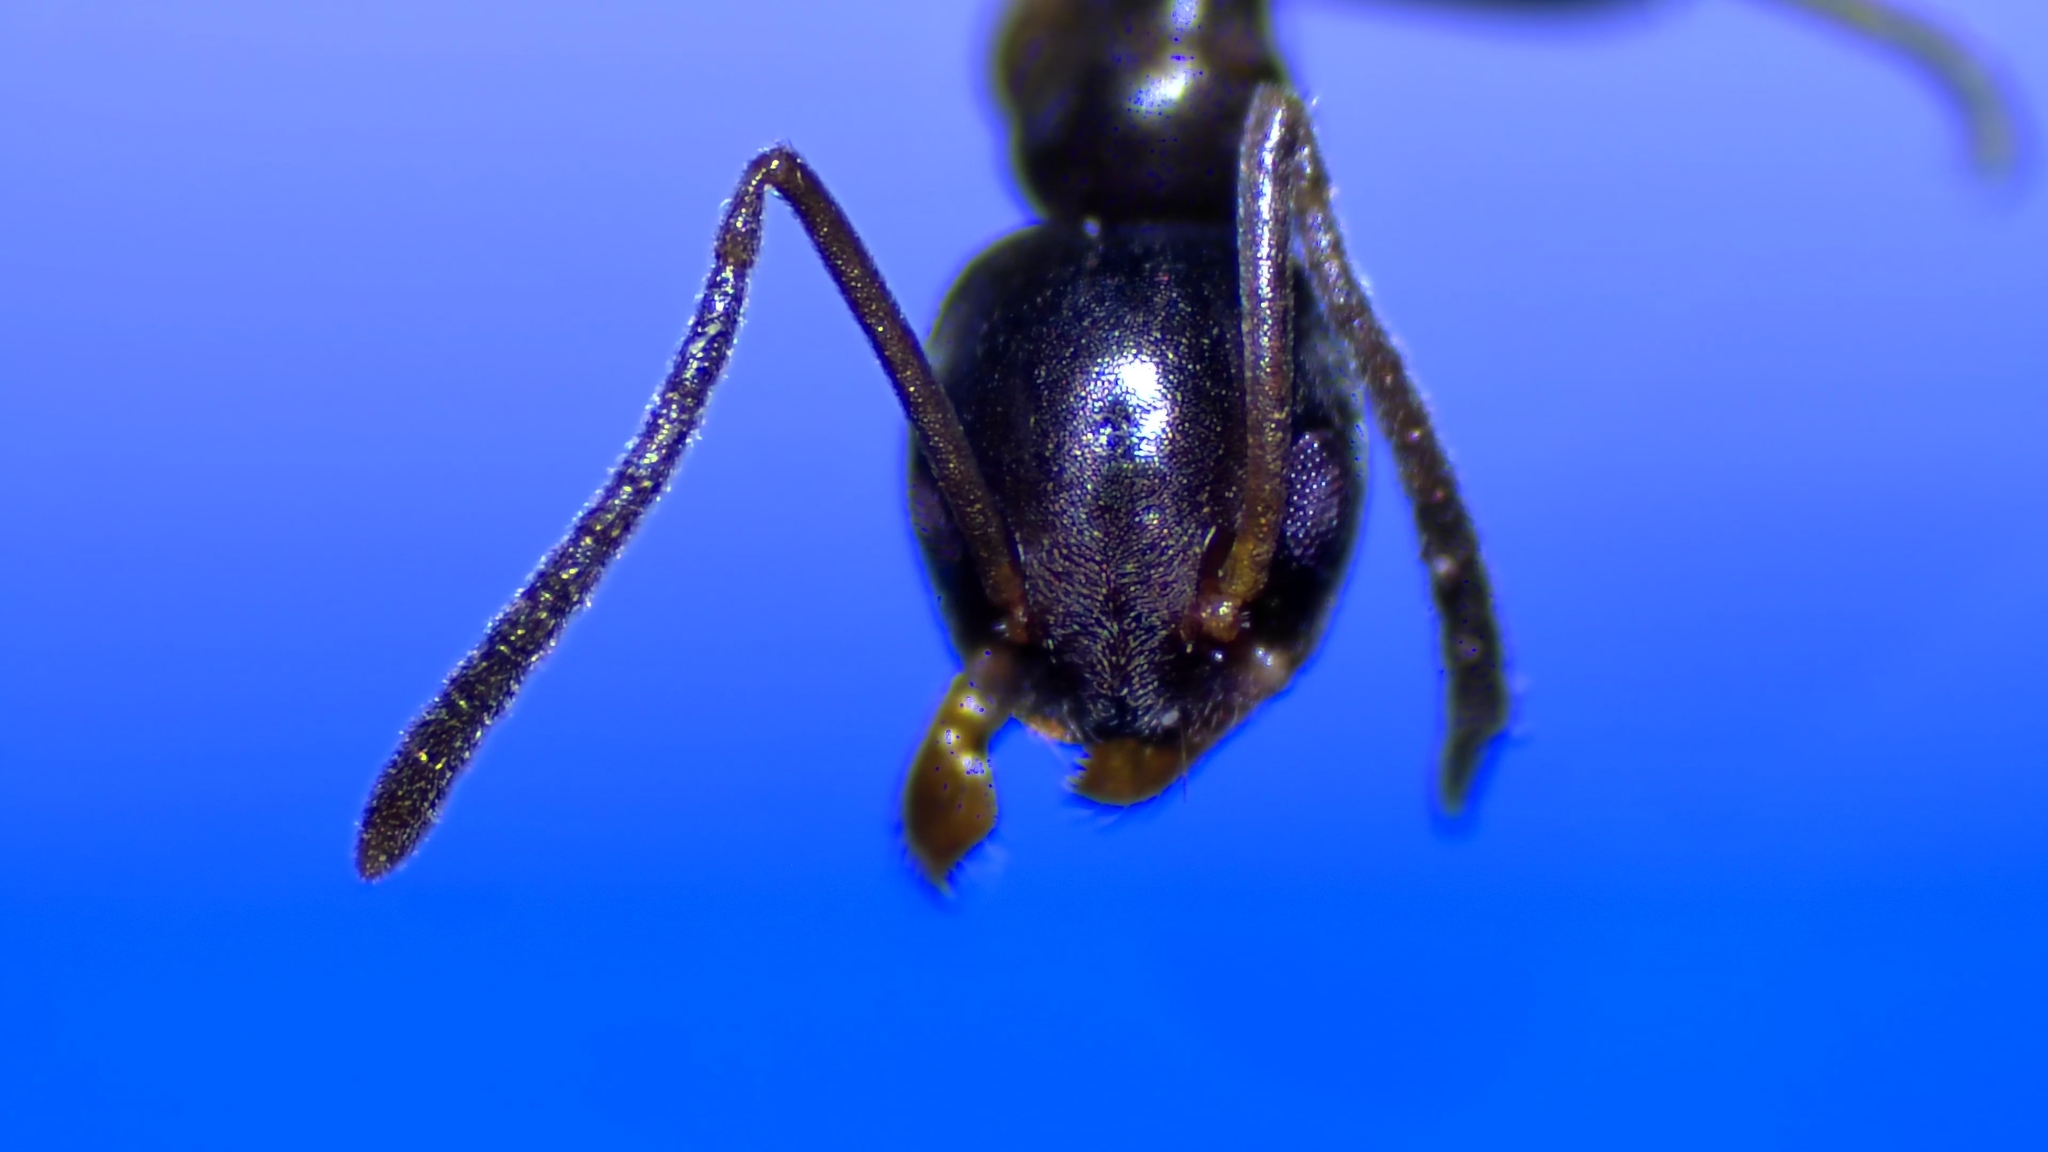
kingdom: Animalia
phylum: Arthropoda
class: Insecta
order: Hymenoptera
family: Formicidae
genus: Tapinoma
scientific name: Tapinoma sessile
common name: Odorous house ant
